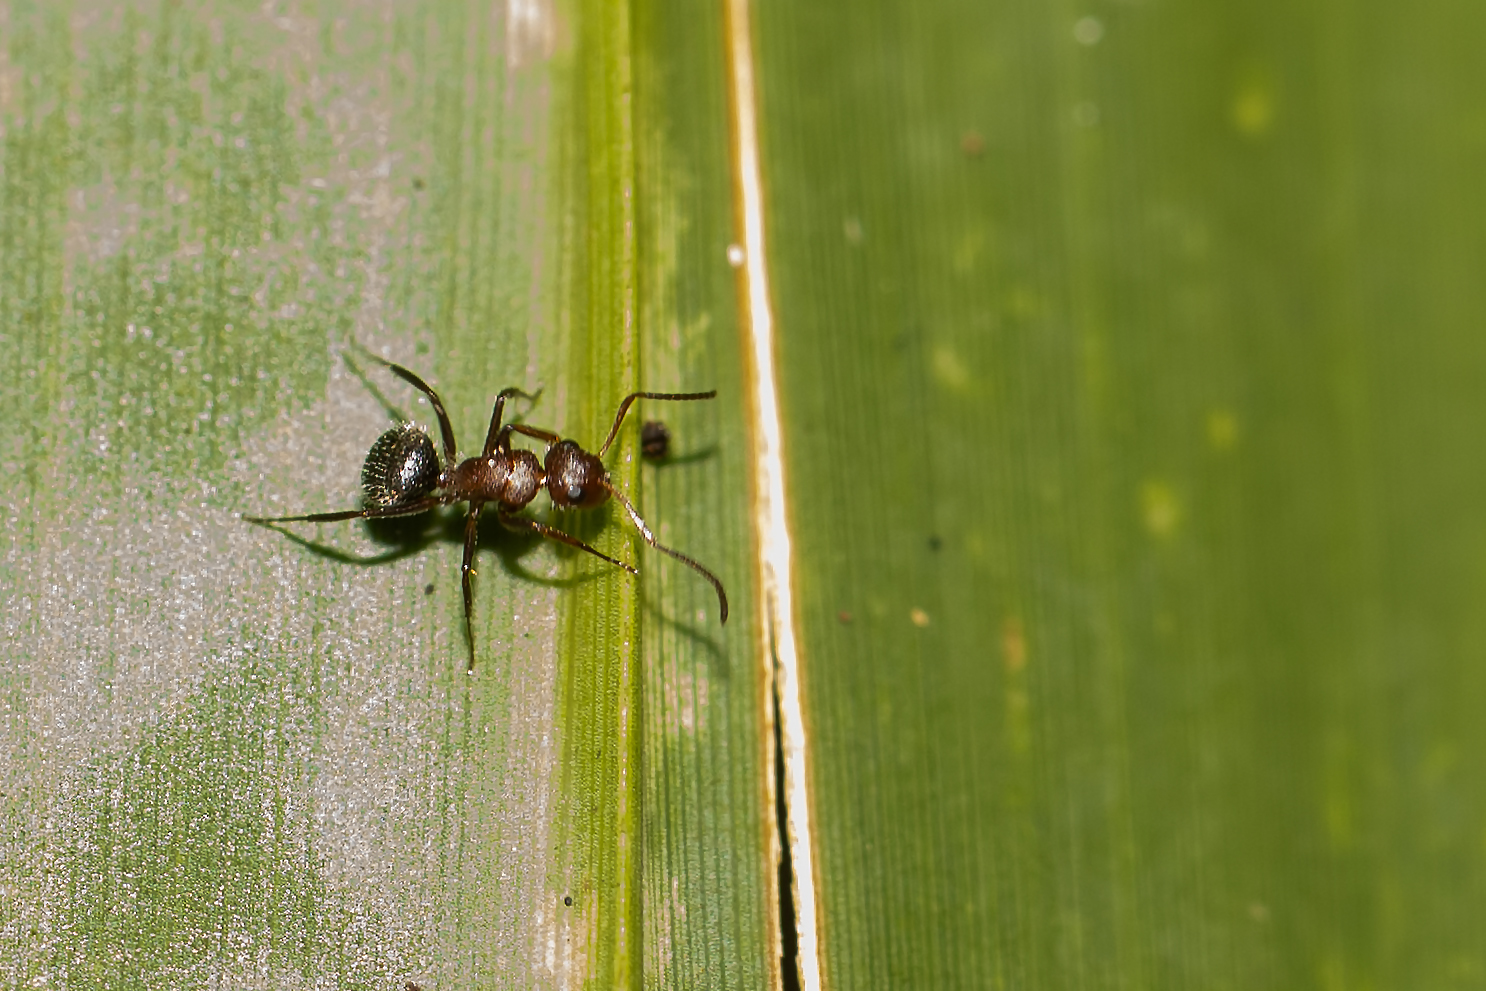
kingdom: Animalia
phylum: Arthropoda
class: Insecta
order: Hymenoptera
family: Formicidae
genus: Camponotus
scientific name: Camponotus planatus
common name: Compact carpenter ant
